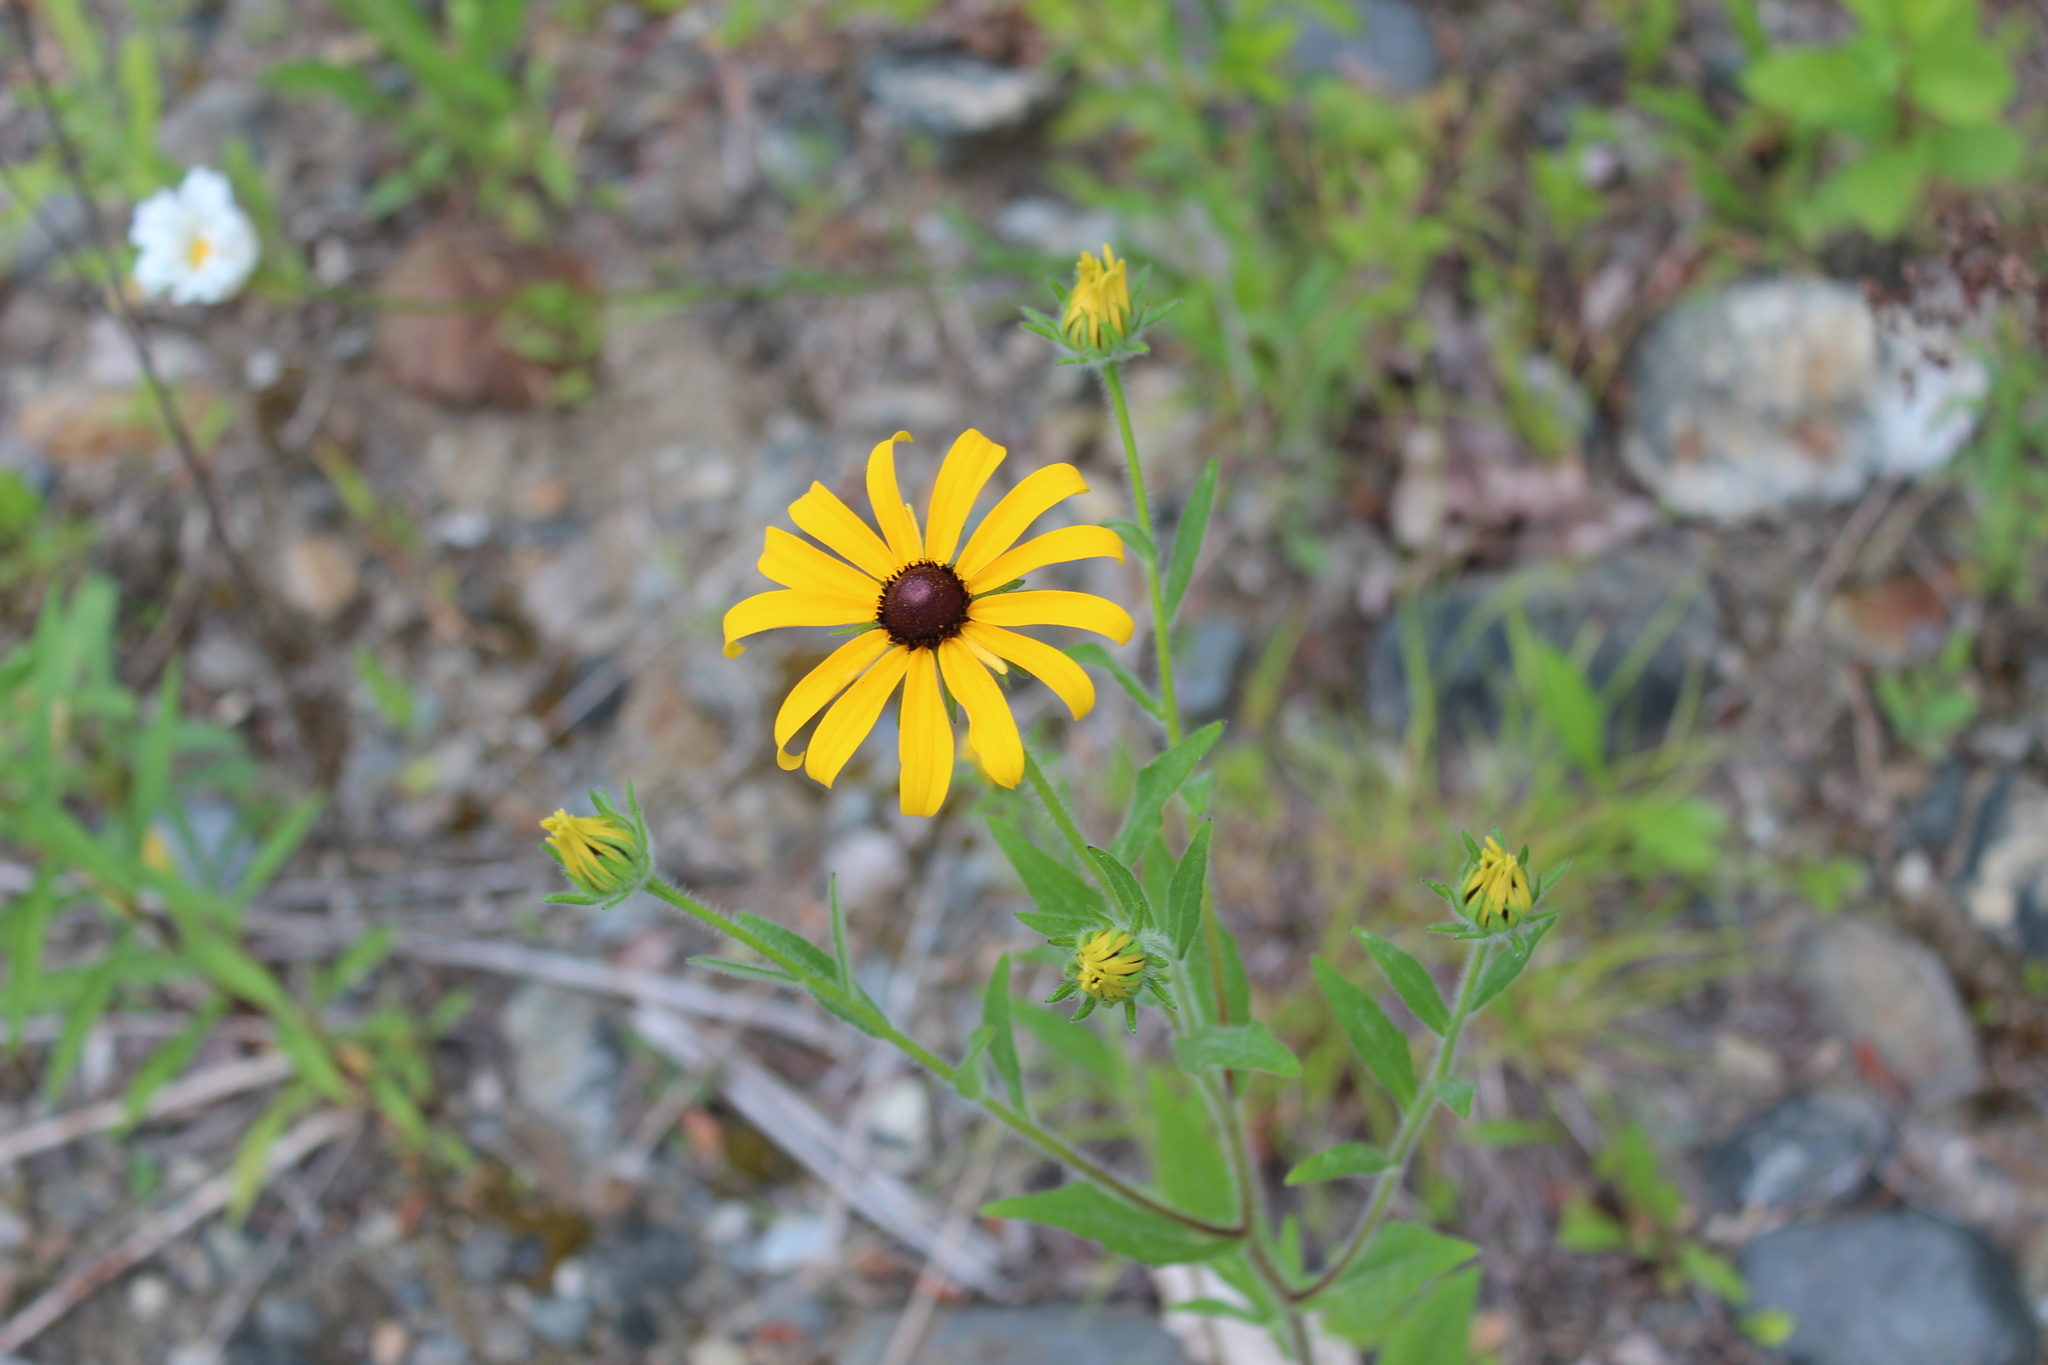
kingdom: Plantae
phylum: Tracheophyta
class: Magnoliopsida
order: Asterales
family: Asteraceae
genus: Rudbeckia
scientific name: Rudbeckia hirta
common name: Black-eyed-susan
